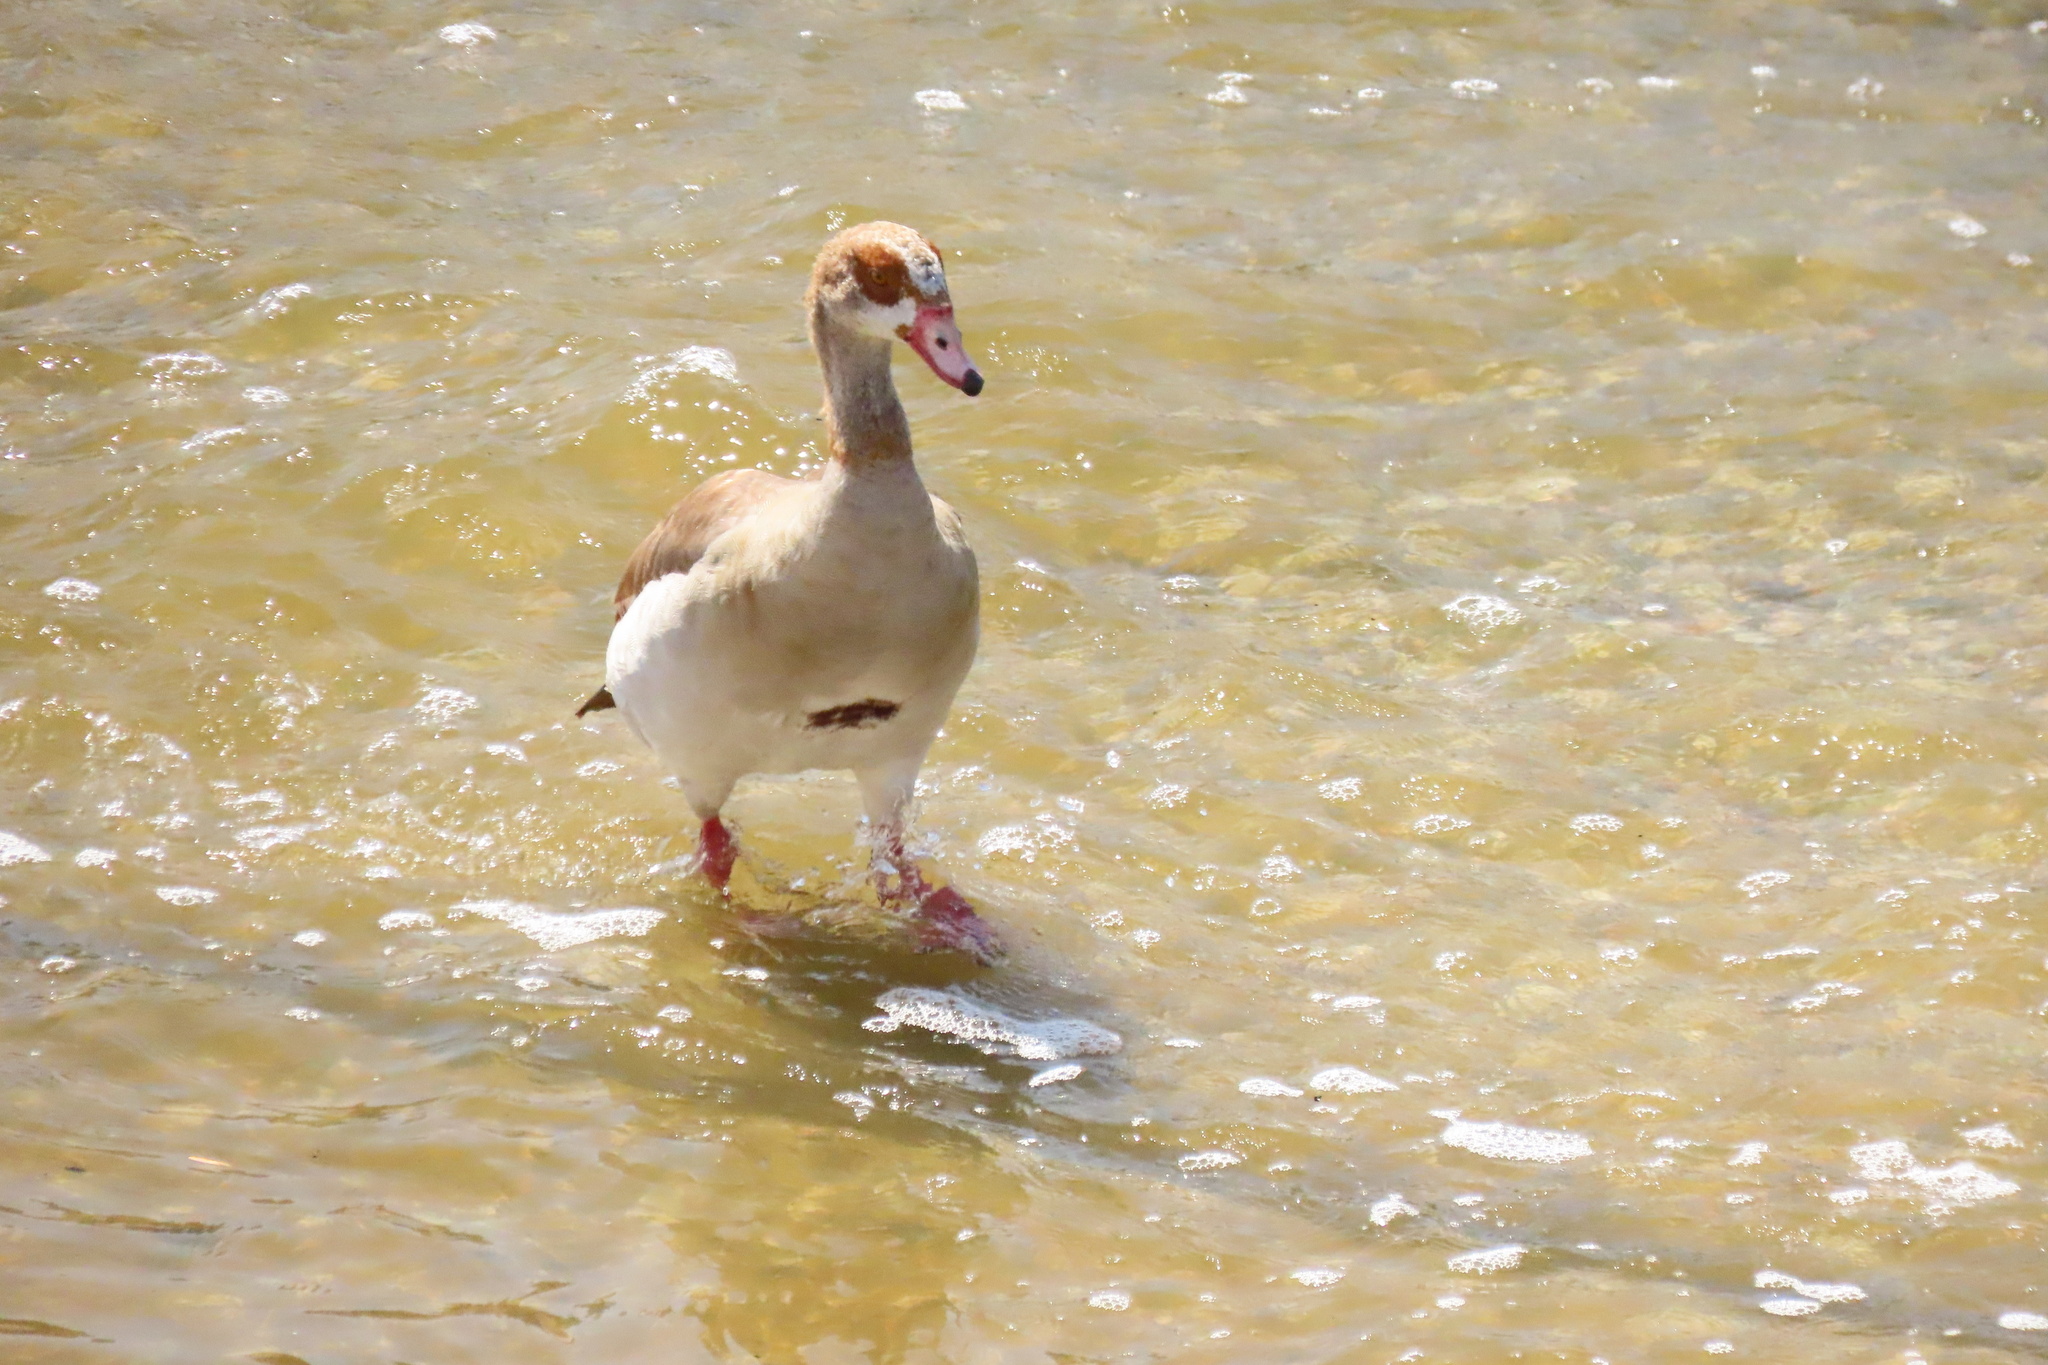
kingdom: Animalia
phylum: Chordata
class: Aves
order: Anseriformes
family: Anatidae
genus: Alopochen
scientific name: Alopochen aegyptiaca
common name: Egyptian goose
